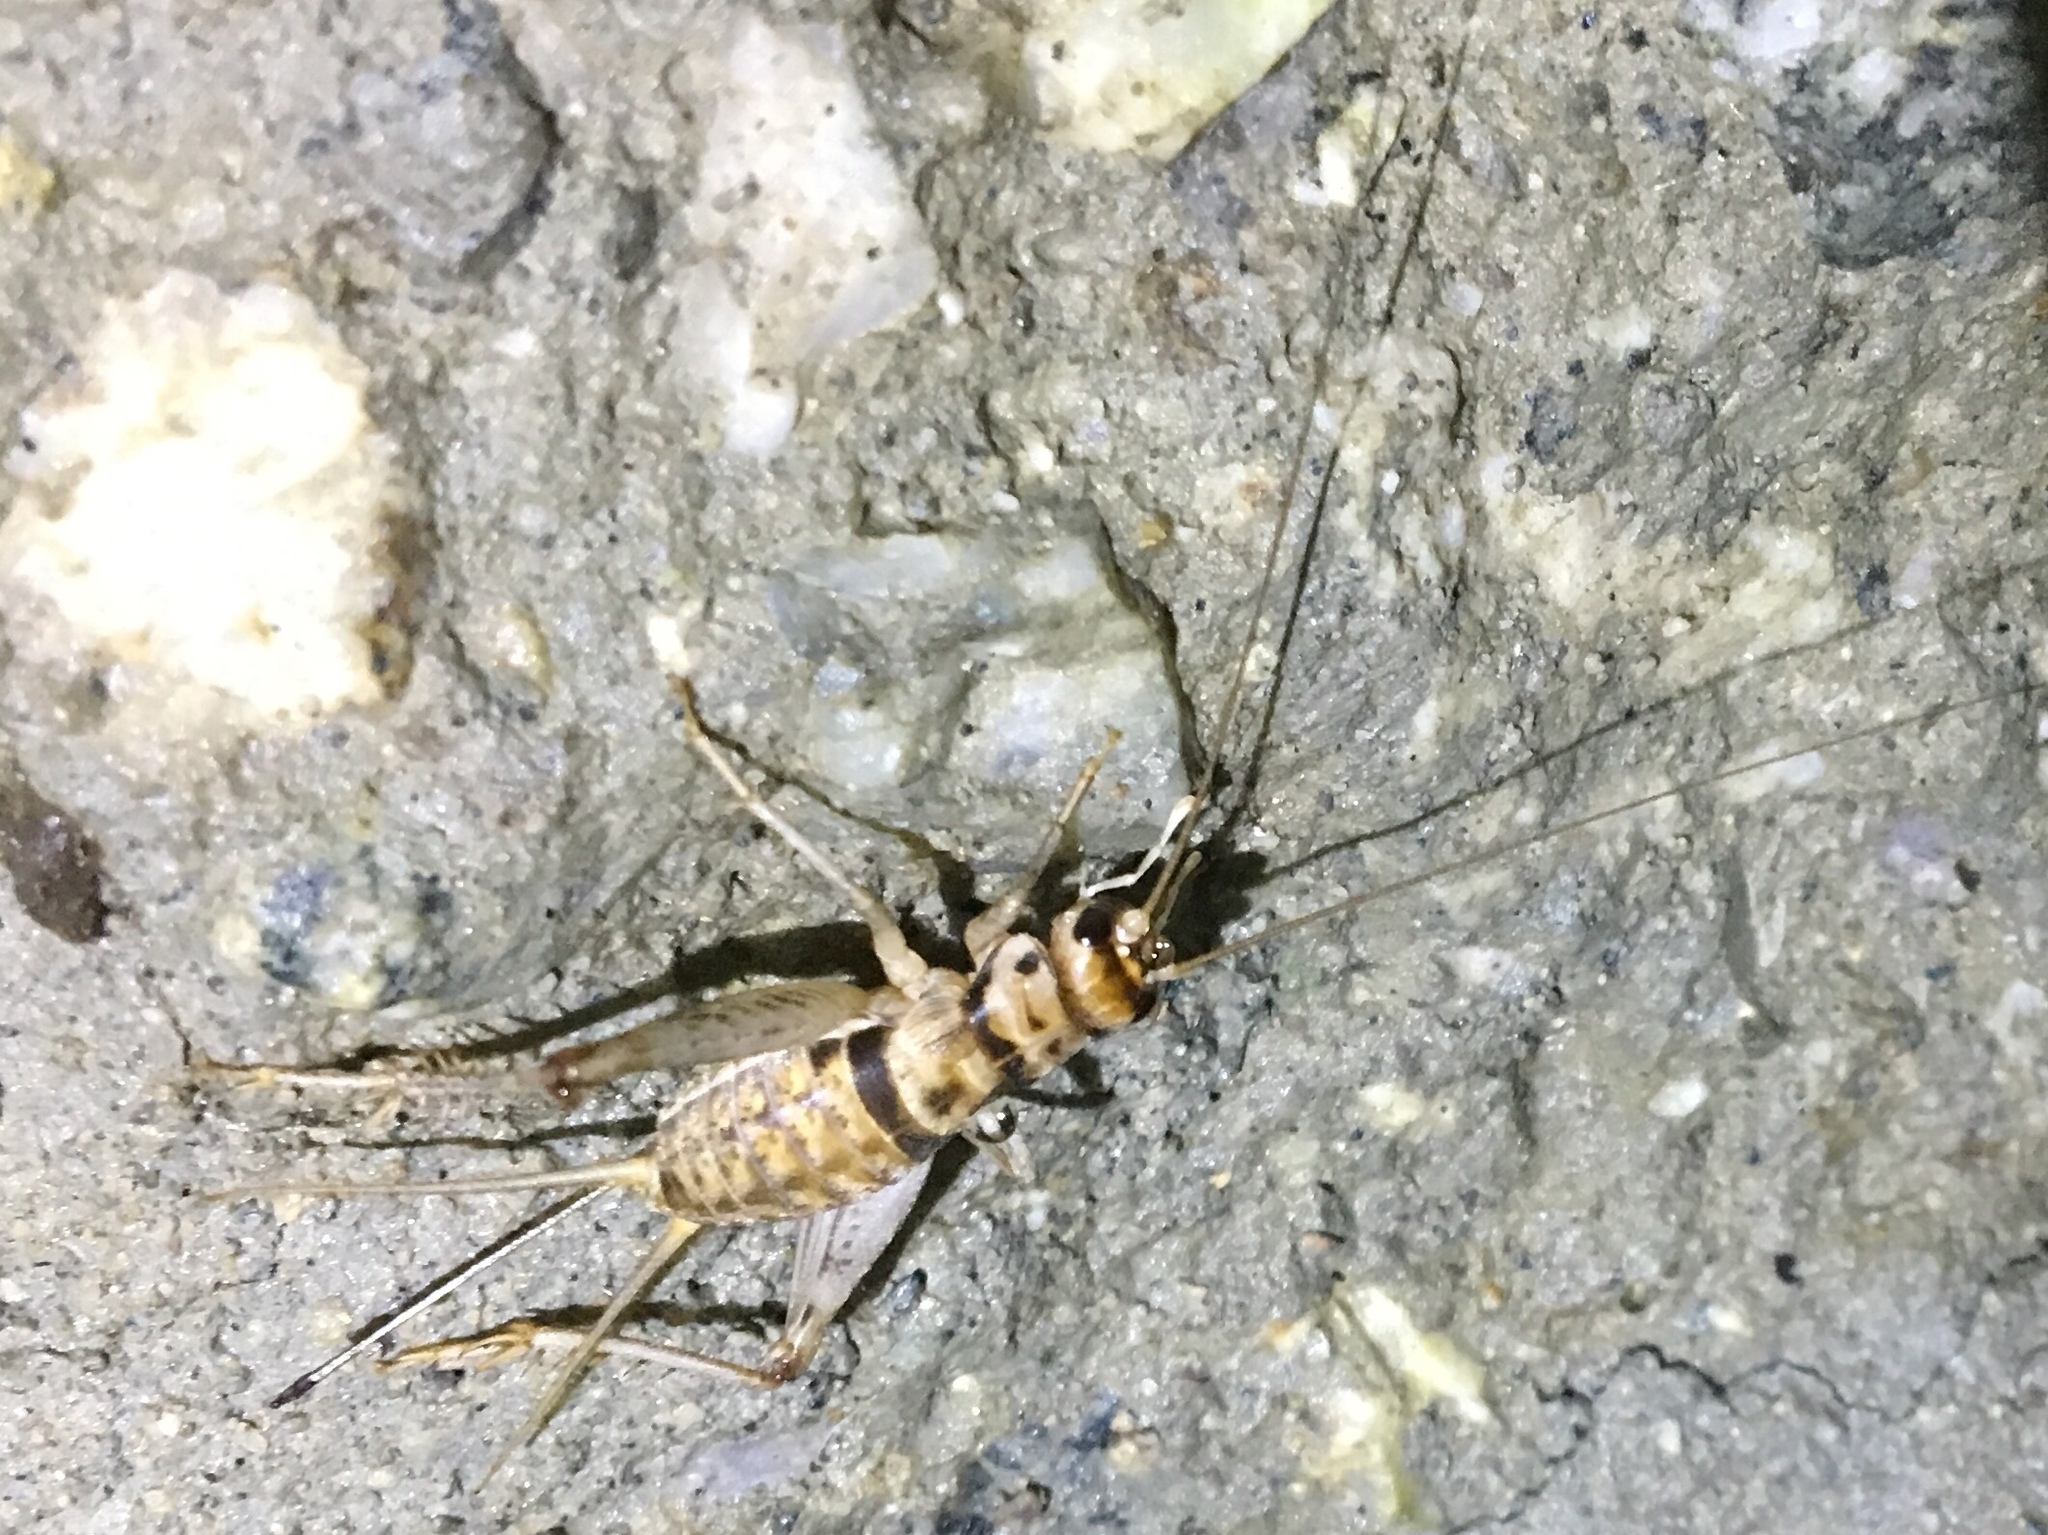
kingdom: Animalia
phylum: Arthropoda
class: Insecta
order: Orthoptera
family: Gryllidae
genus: Gryllodes
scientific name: Gryllodes sigillatus
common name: Tropical house cricket
